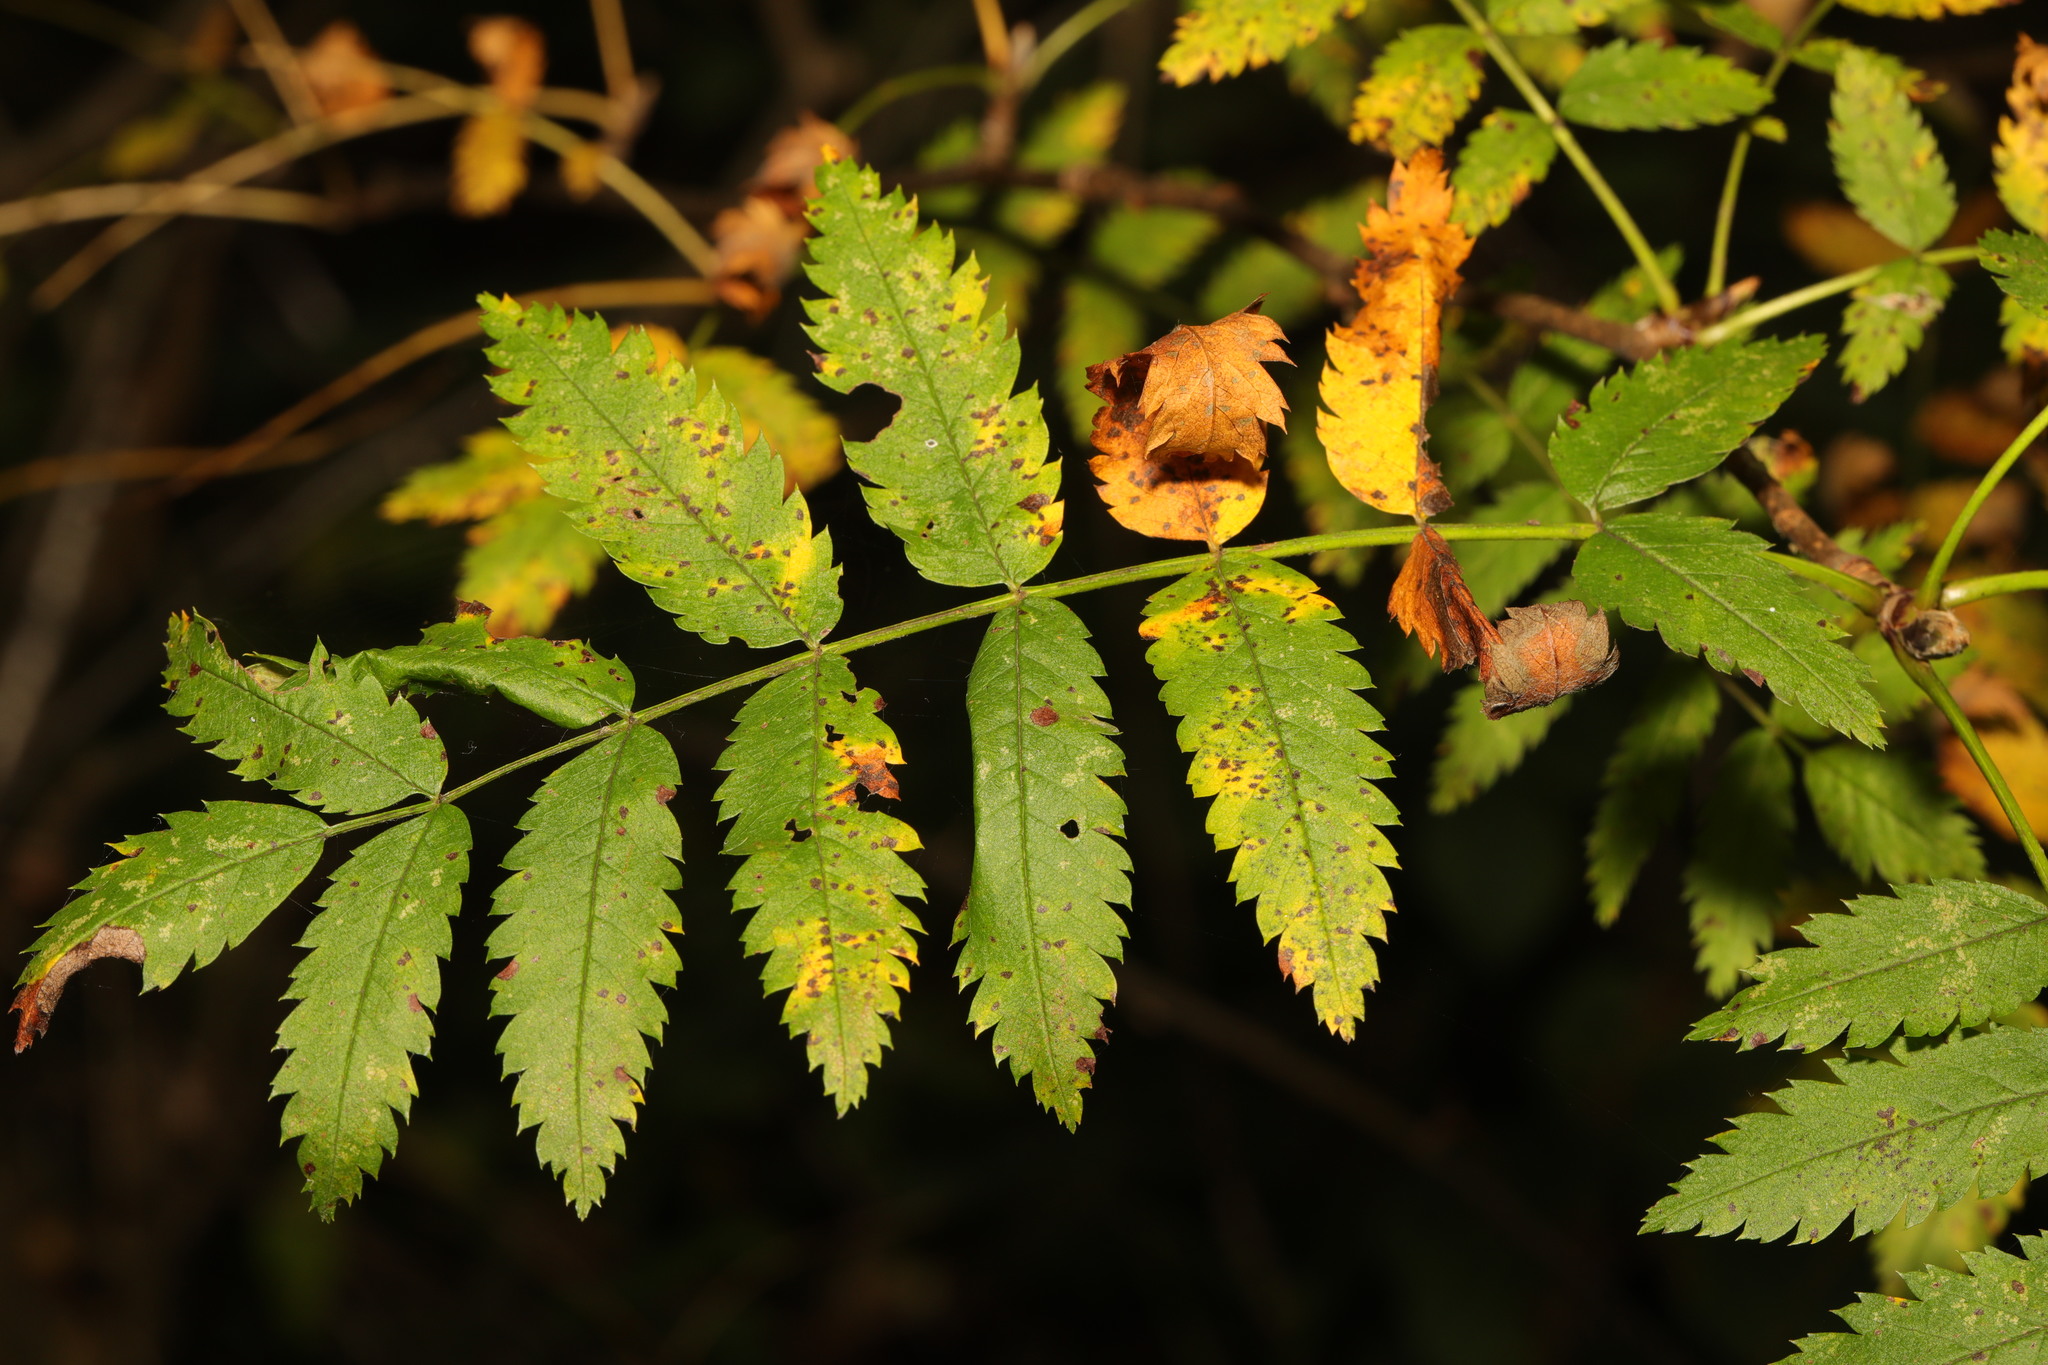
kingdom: Plantae
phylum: Tracheophyta
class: Magnoliopsida
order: Rosales
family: Rosaceae
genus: Sorbus
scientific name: Sorbus aucuparia
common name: Rowan
